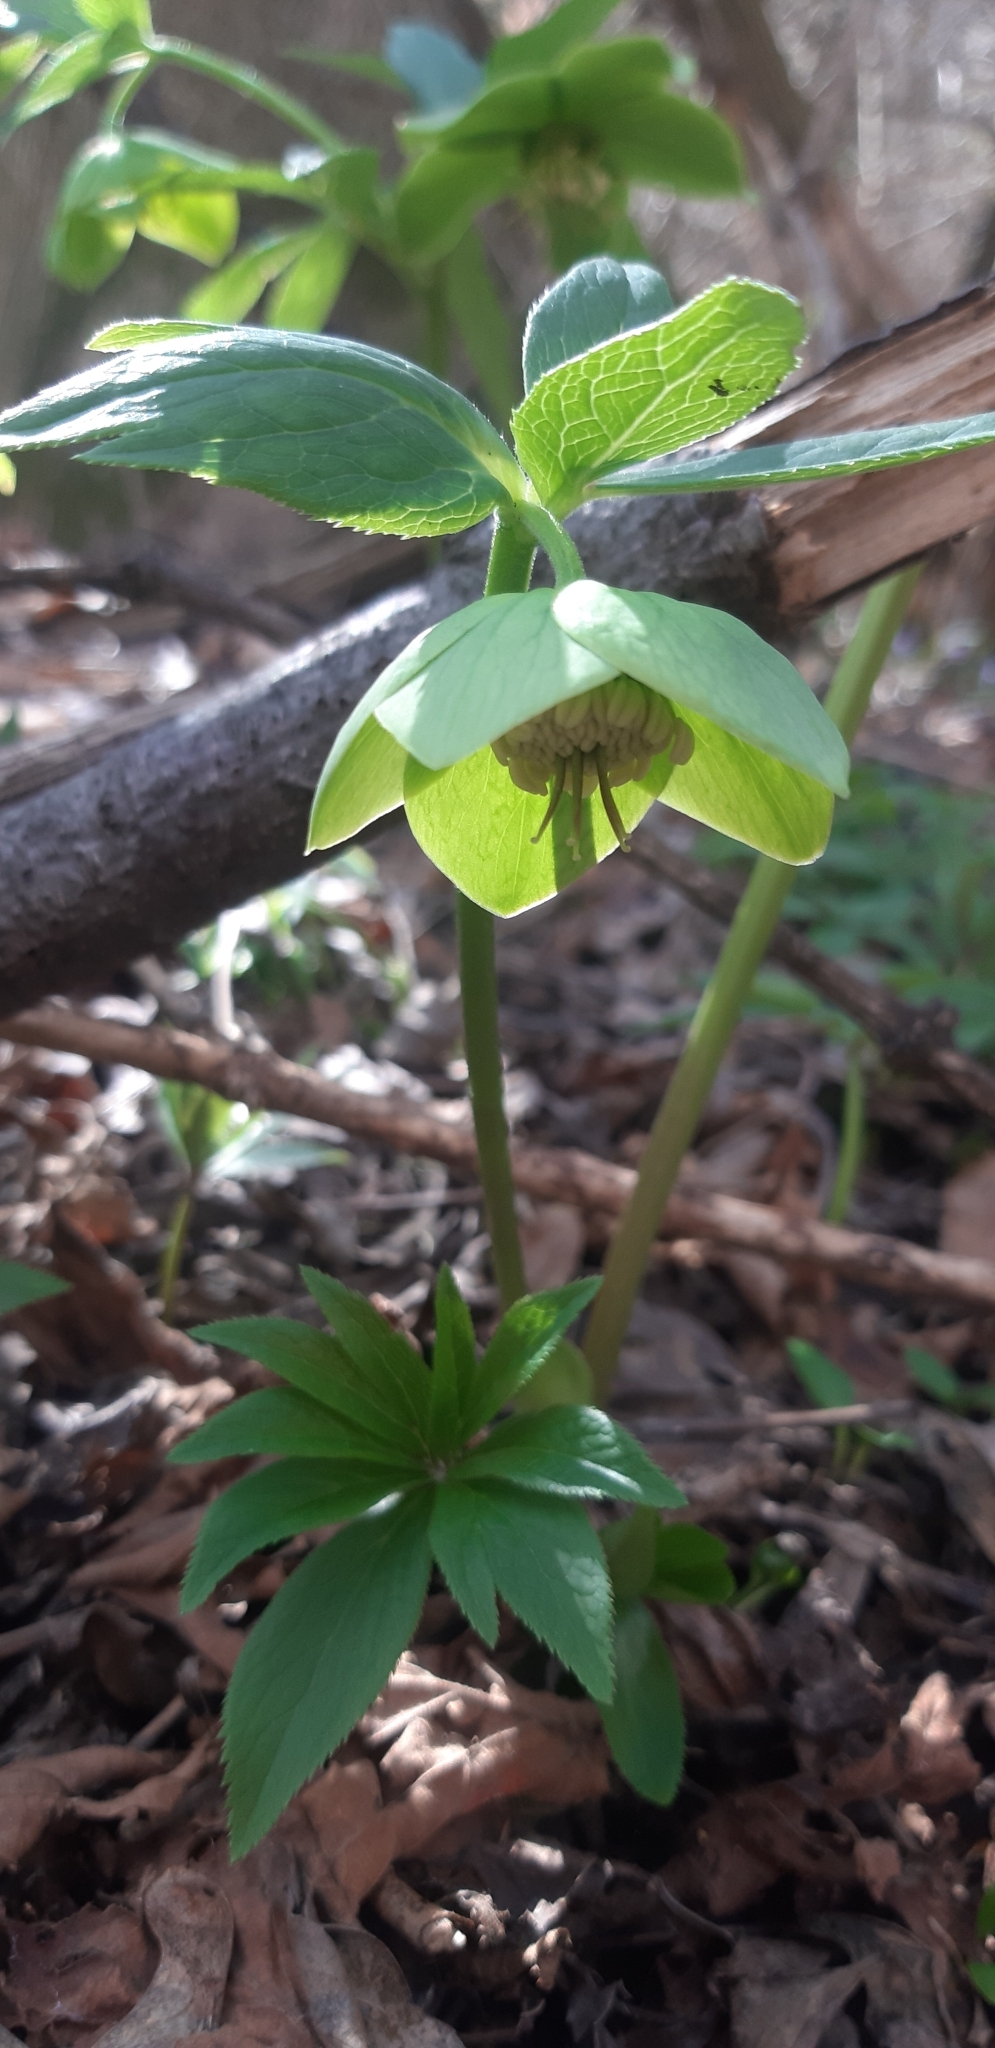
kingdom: Plantae
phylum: Tracheophyta
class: Magnoliopsida
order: Ranunculales
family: Ranunculaceae
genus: Helleborus
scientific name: Helleborus viridis
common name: Green hellebore
